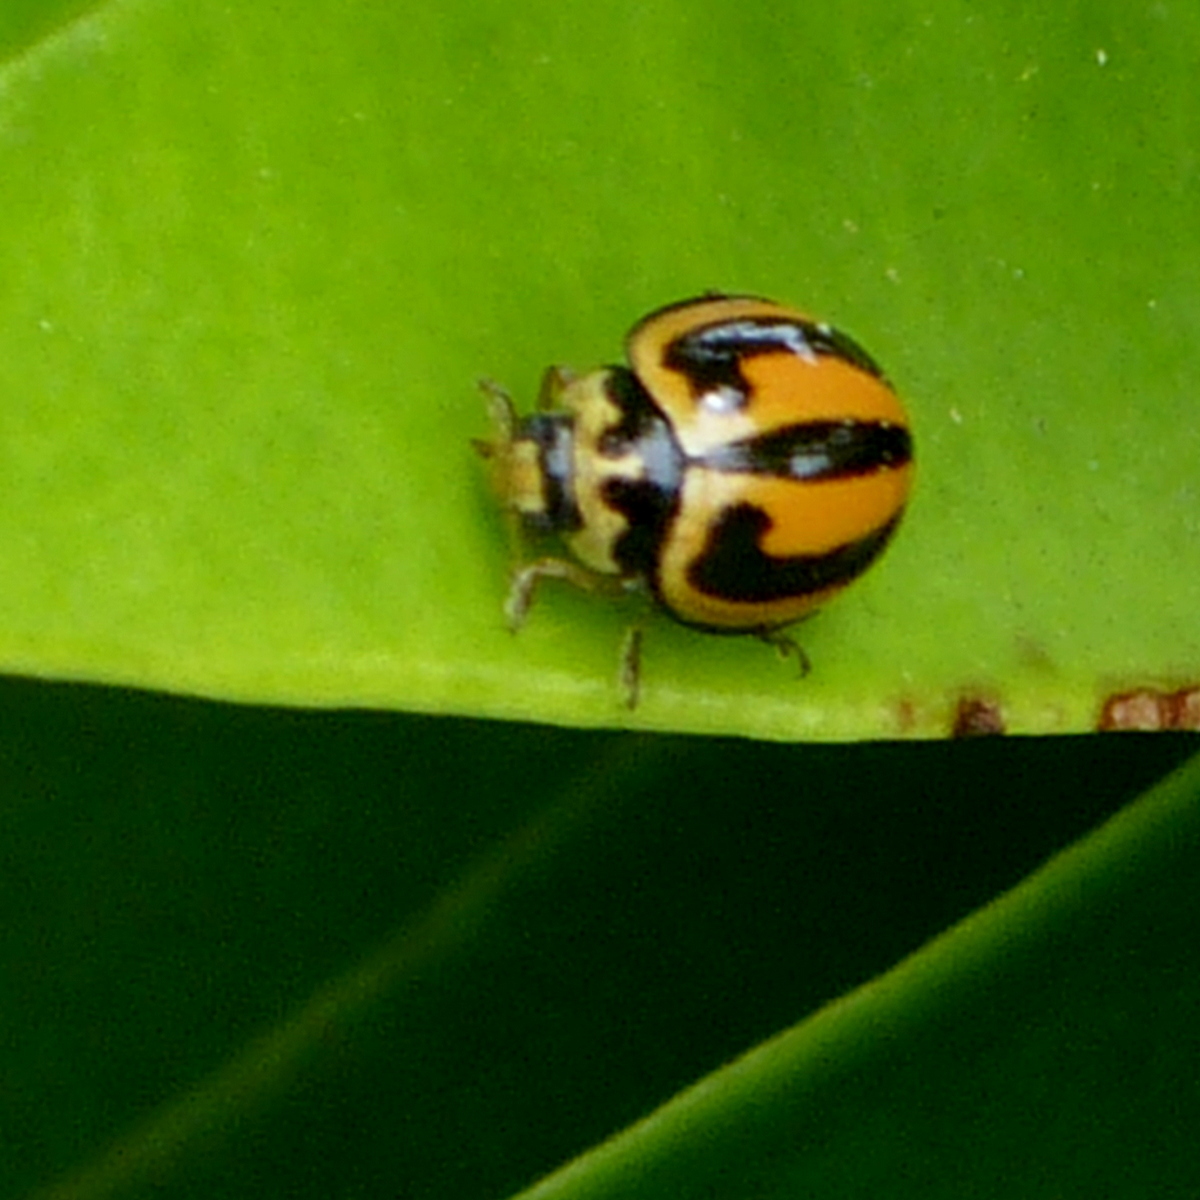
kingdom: Animalia
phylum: Arthropoda
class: Insecta
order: Coleoptera
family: Coccinellidae
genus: Micraspis
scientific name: Micraspis frenata
